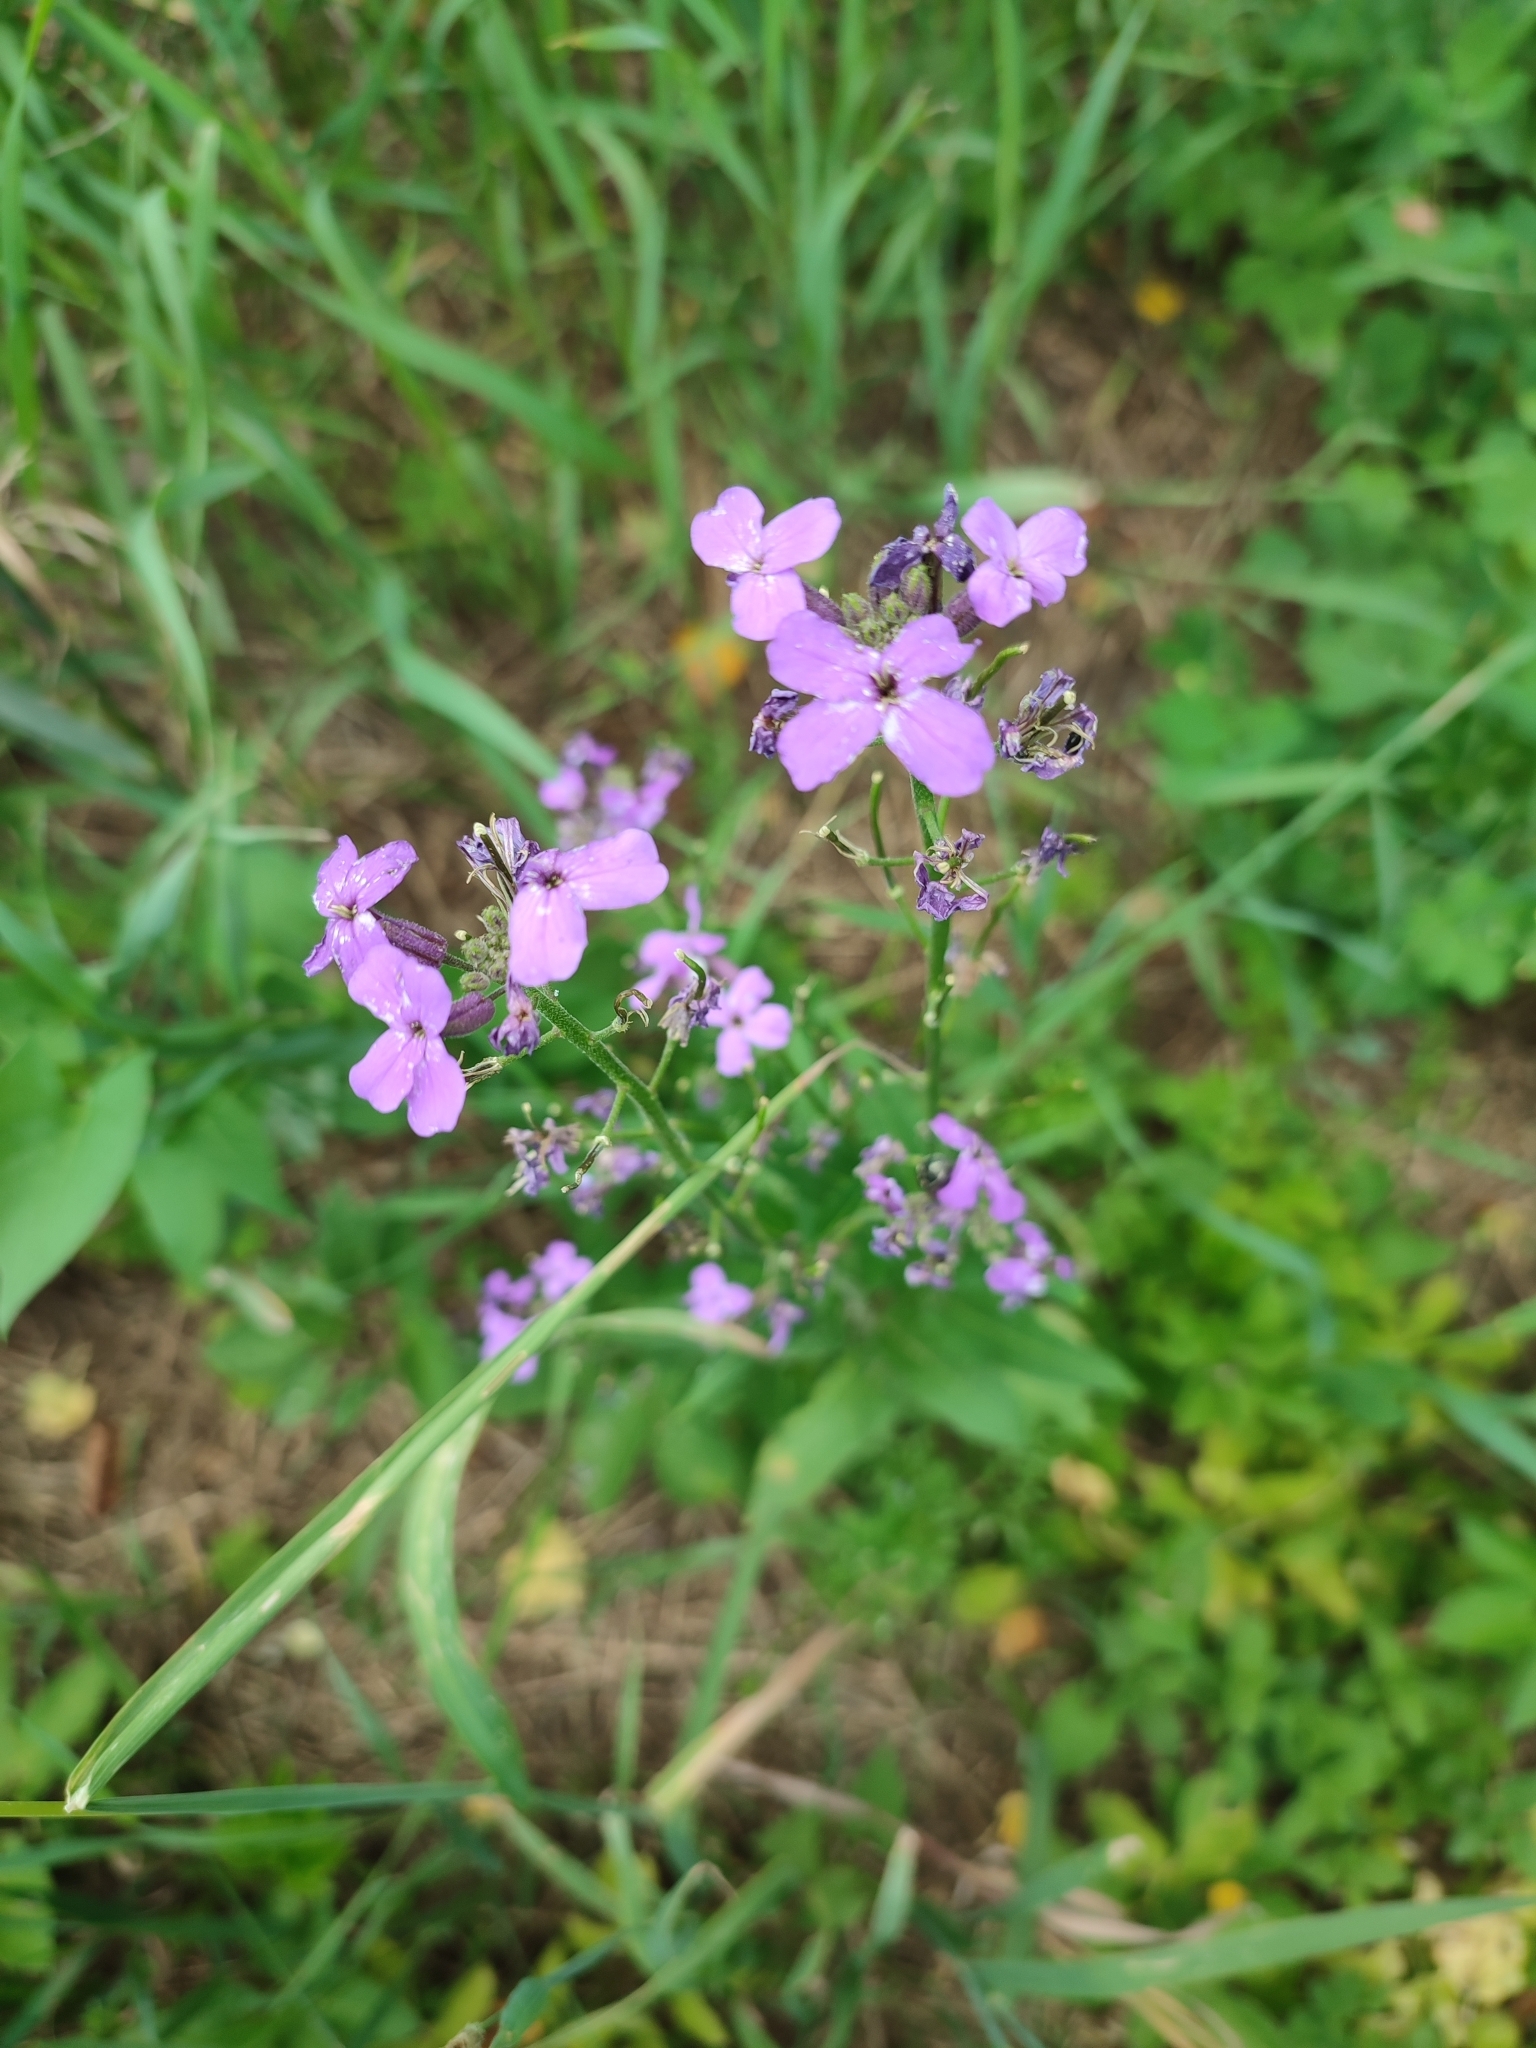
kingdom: Plantae
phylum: Tracheophyta
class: Magnoliopsida
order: Brassicales
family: Brassicaceae
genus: Hesperis
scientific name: Hesperis matronalis
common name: Dame's-violet
